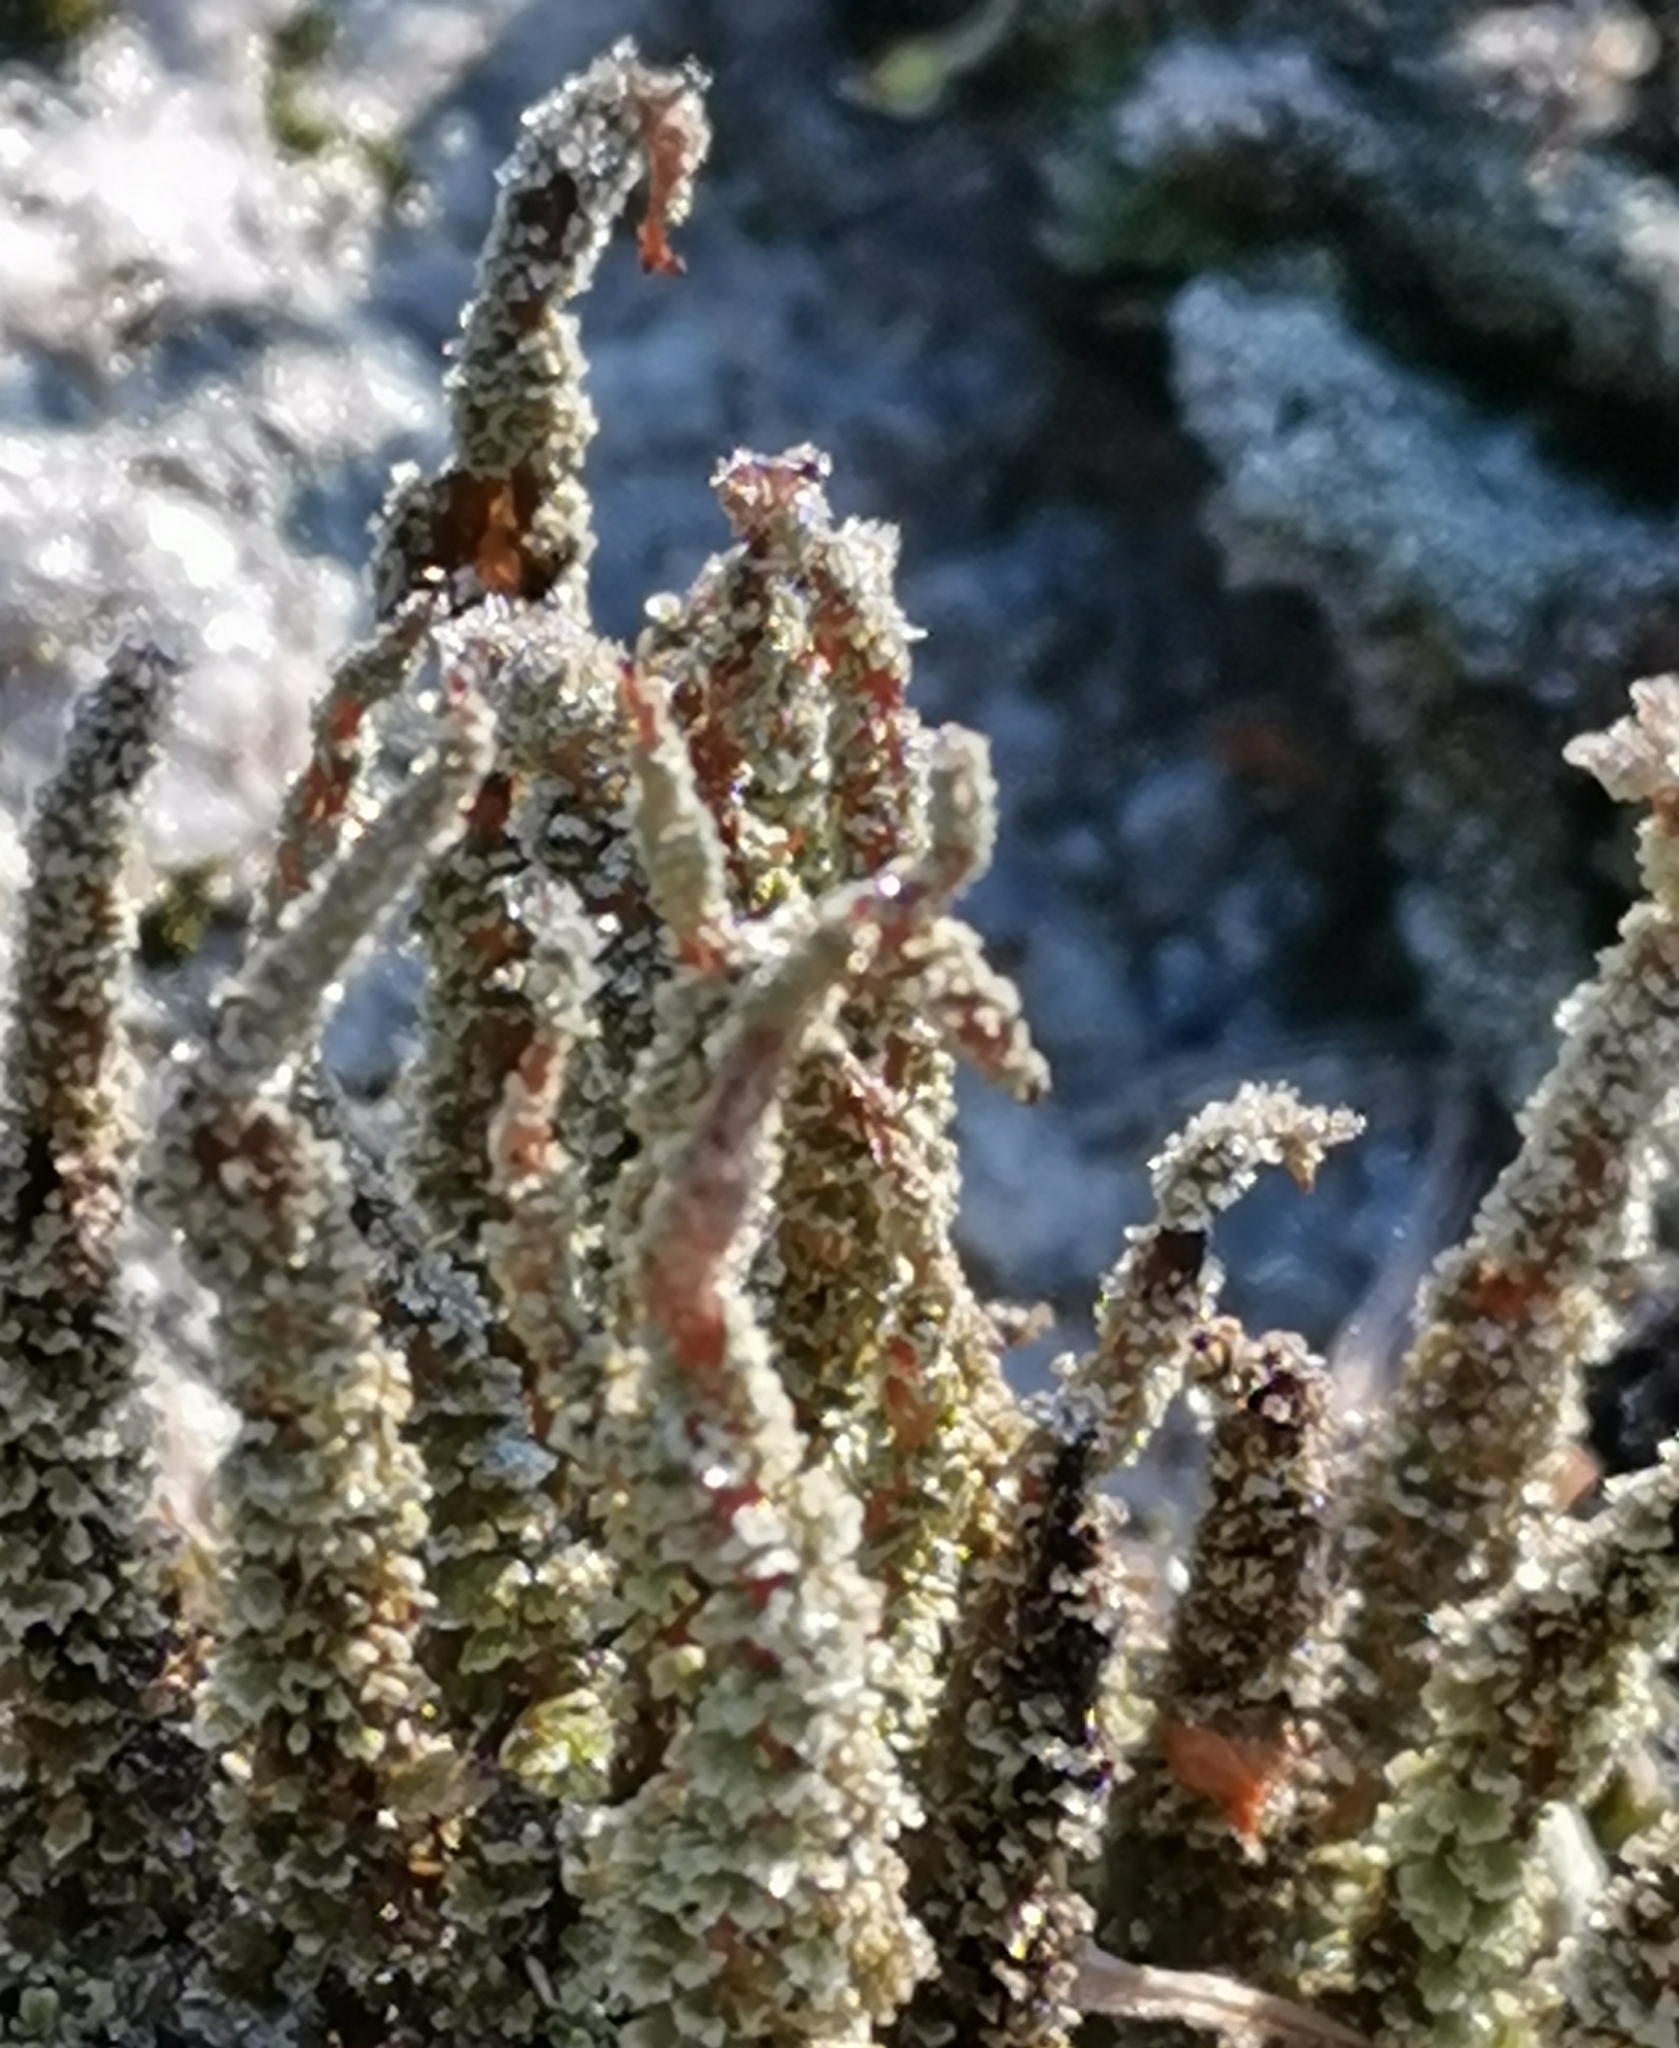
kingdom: Fungi
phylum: Ascomycota
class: Lecanoromycetes
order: Lecanorales
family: Cladoniaceae
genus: Cladonia
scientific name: Cladonia squamosa
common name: Dragon horn
